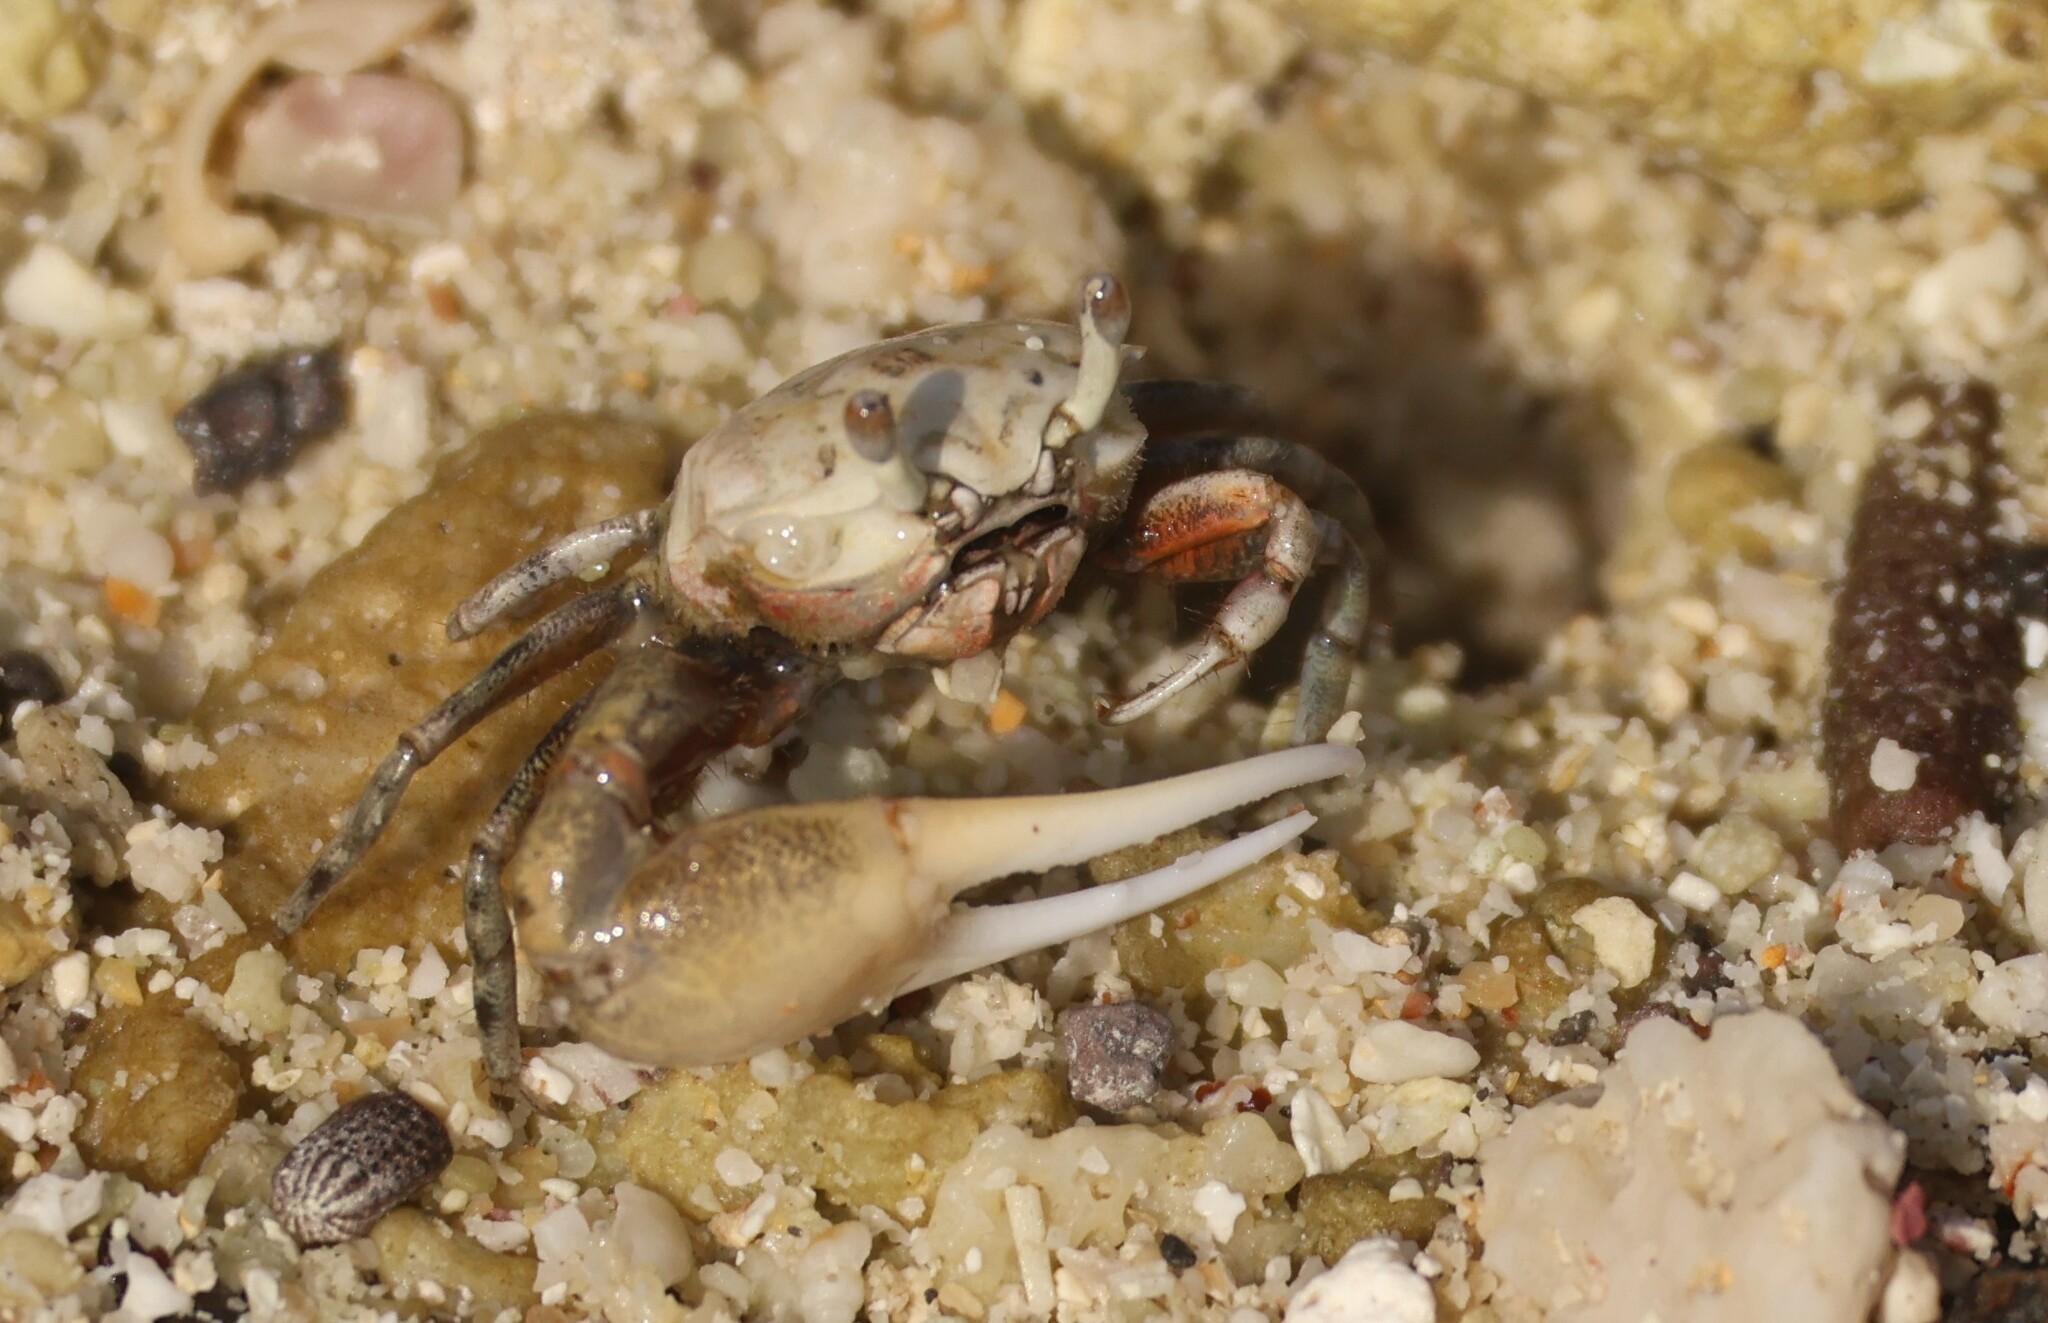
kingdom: Animalia
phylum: Arthropoda
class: Malacostraca
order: Decapoda
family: Ocypodidae
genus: Leptuca
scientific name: Leptuca helleri
